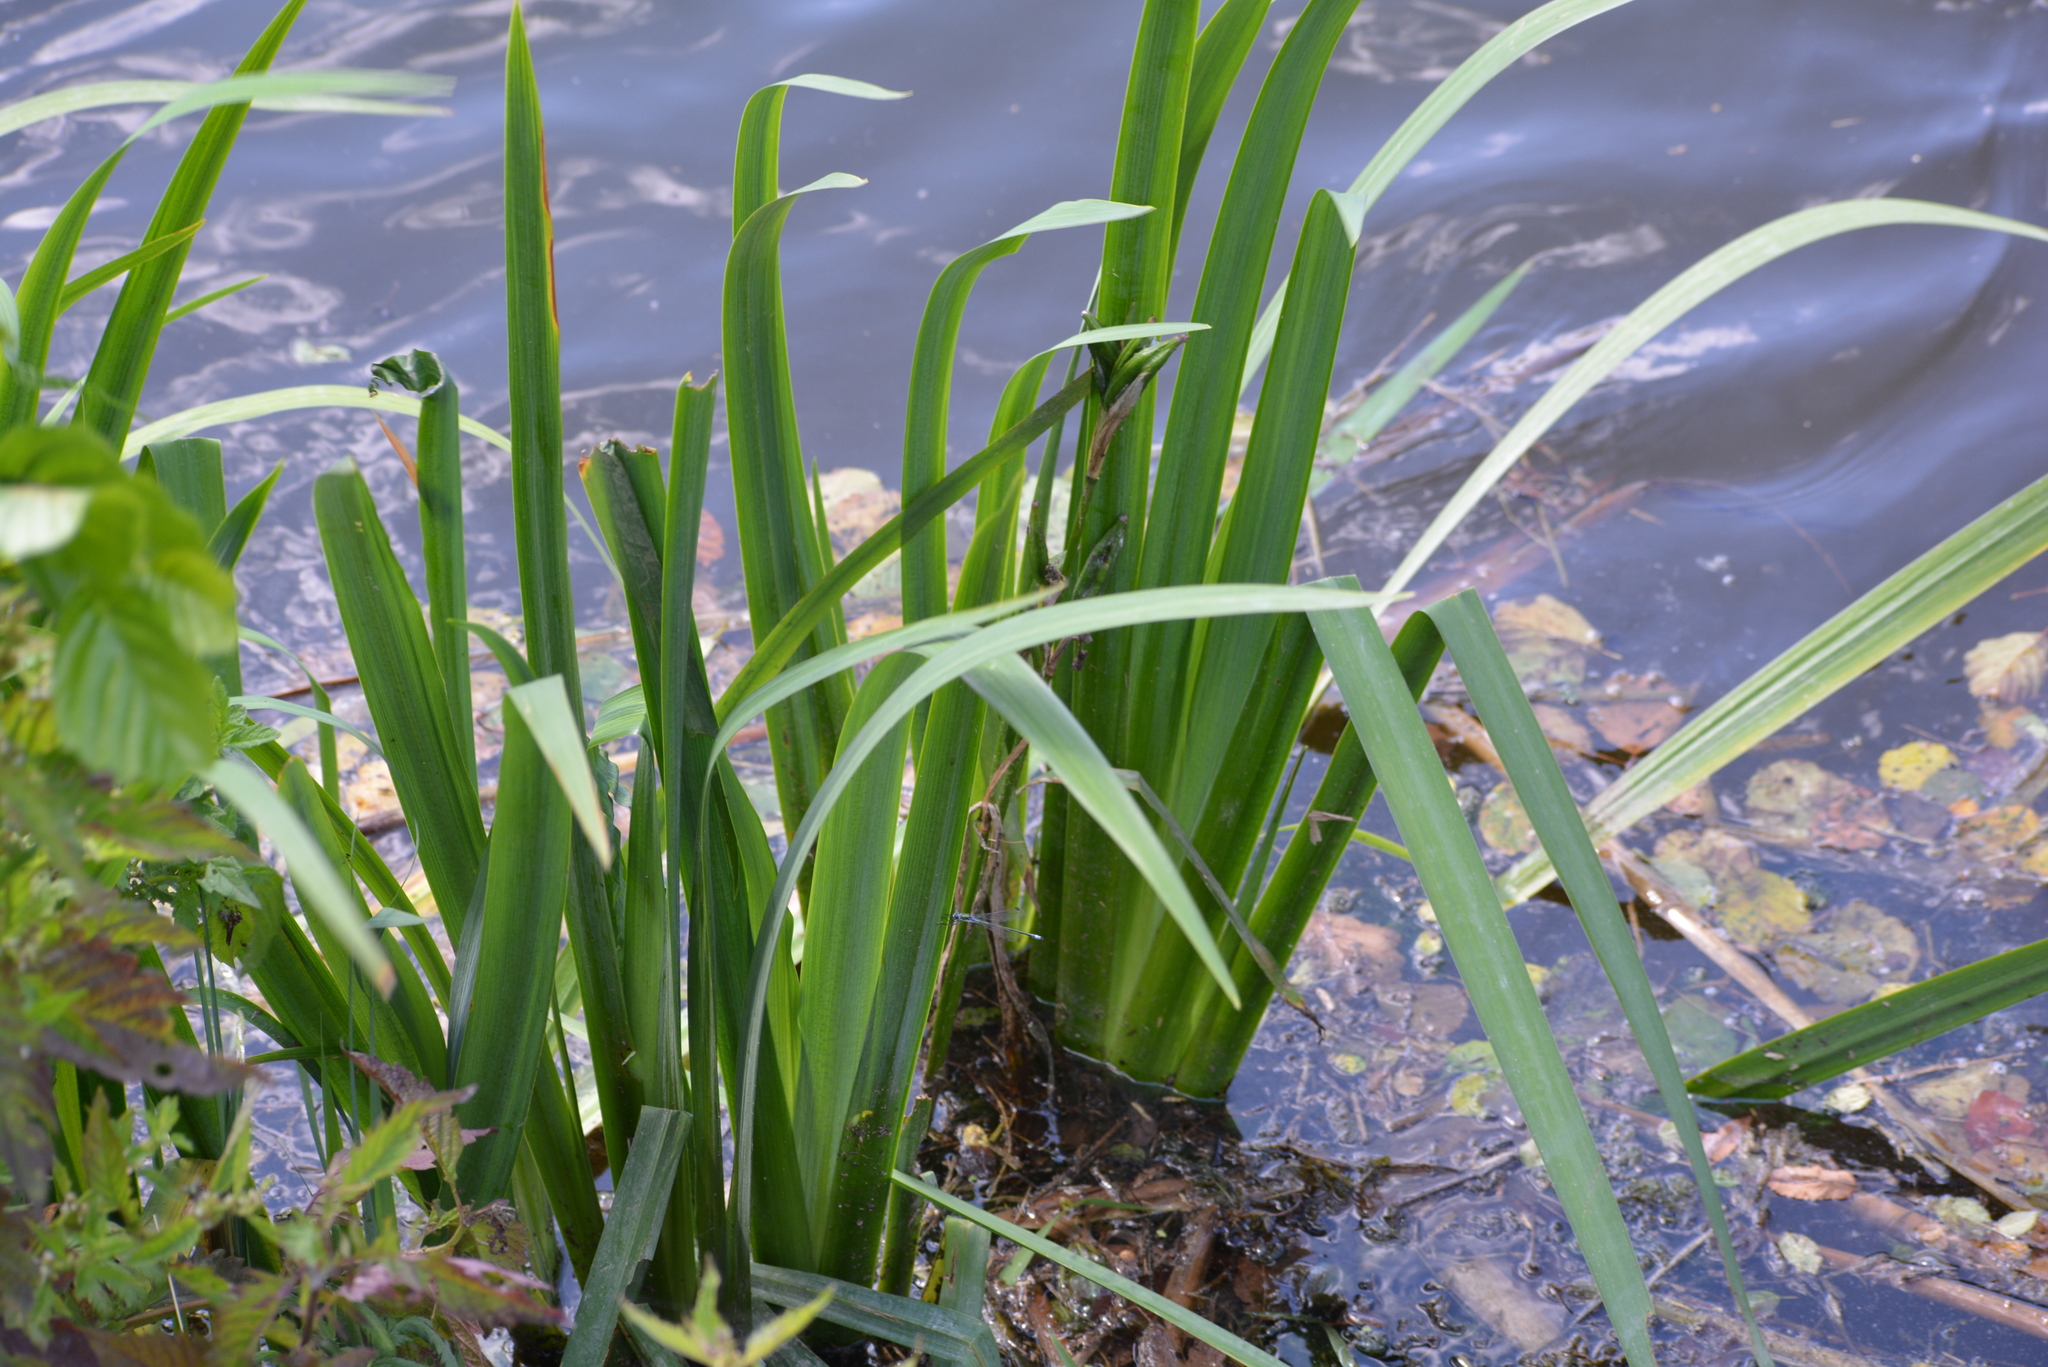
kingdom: Plantae
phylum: Tracheophyta
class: Liliopsida
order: Asparagales
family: Iridaceae
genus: Iris
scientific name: Iris pseudacorus
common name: Yellow flag
